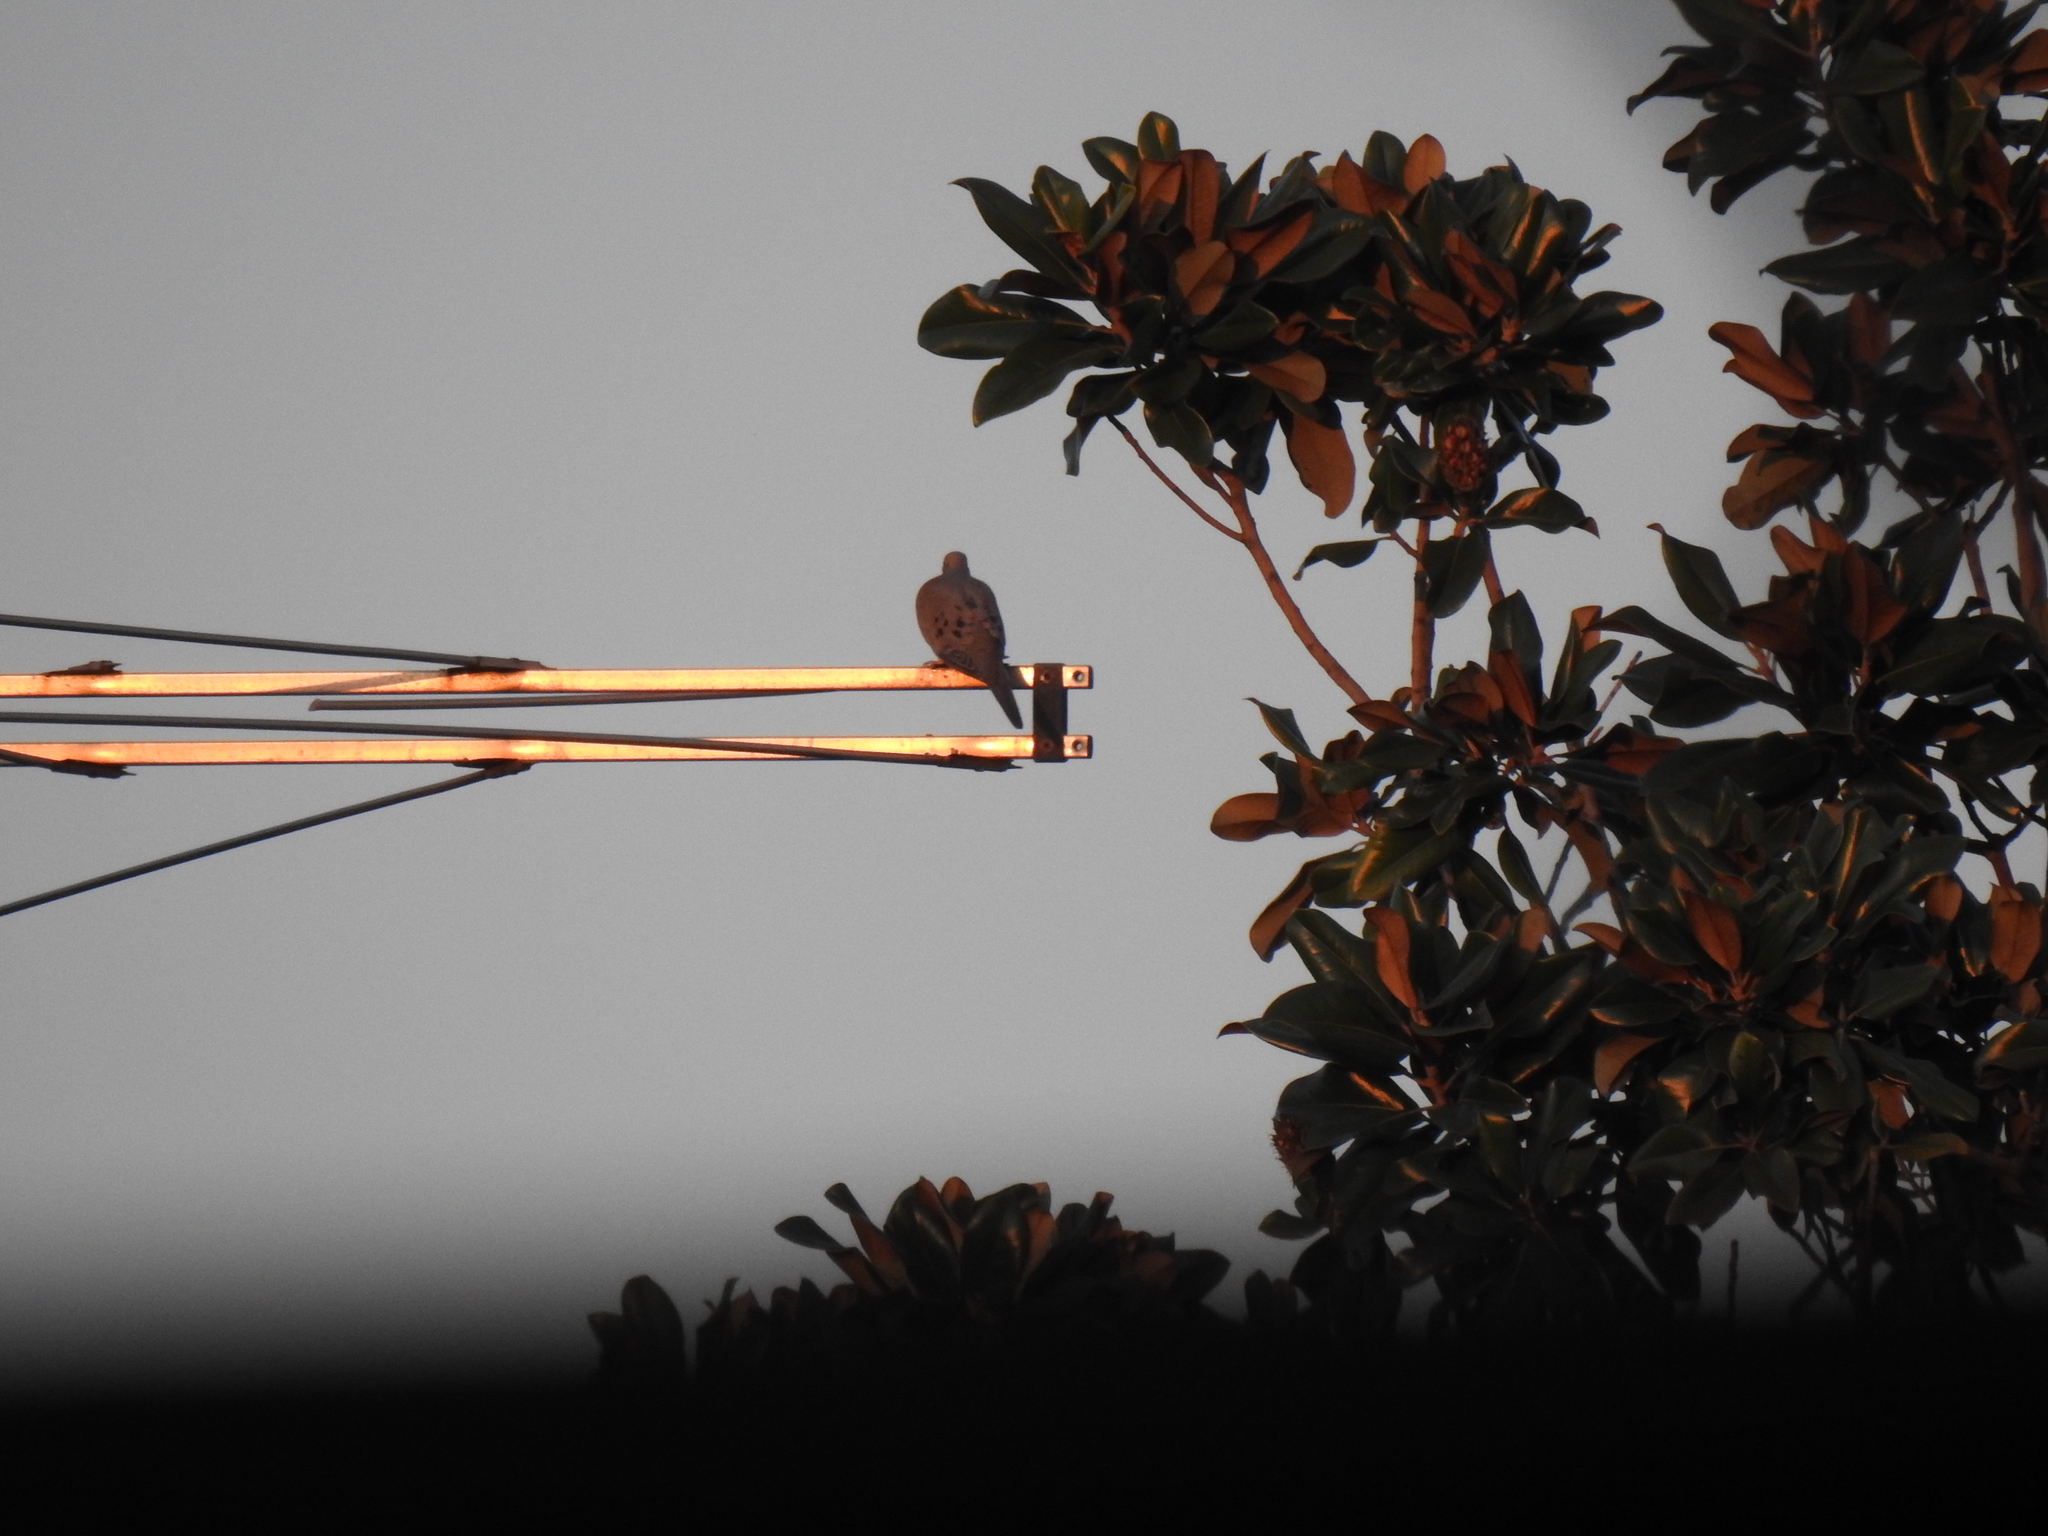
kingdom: Animalia
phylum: Chordata
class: Aves
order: Columbiformes
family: Columbidae
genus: Zenaida
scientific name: Zenaida macroura
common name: Mourning dove
